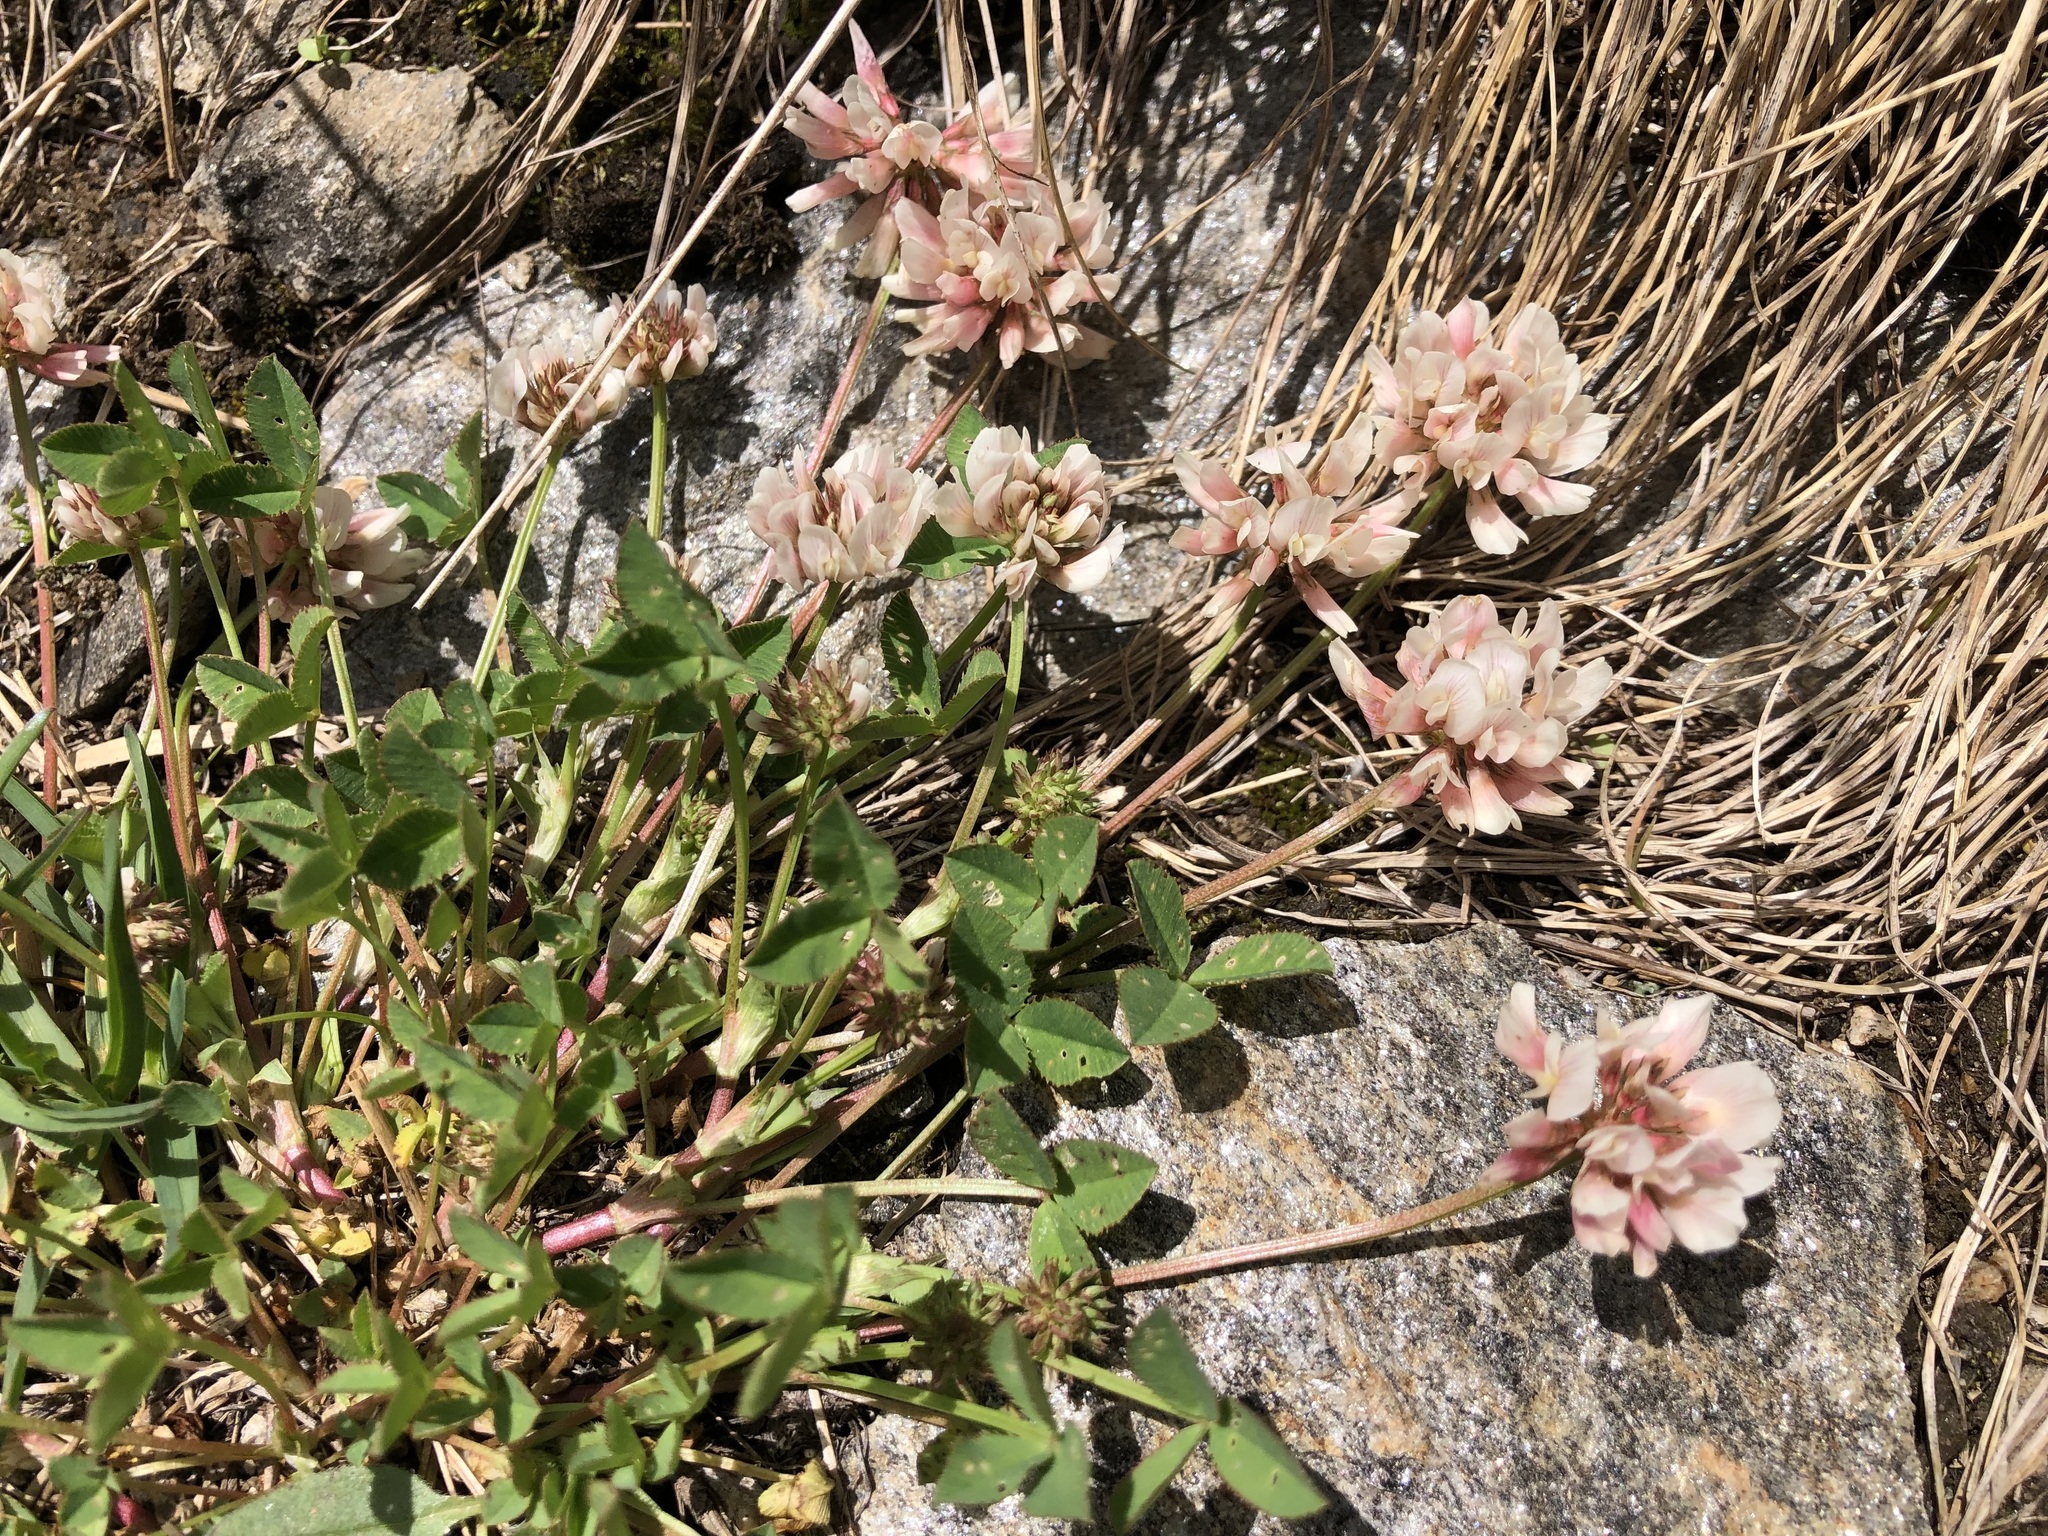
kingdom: Plantae
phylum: Tracheophyta
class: Magnoliopsida
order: Fabales
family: Fabaceae
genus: Trifolium
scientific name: Trifolium pallescens
